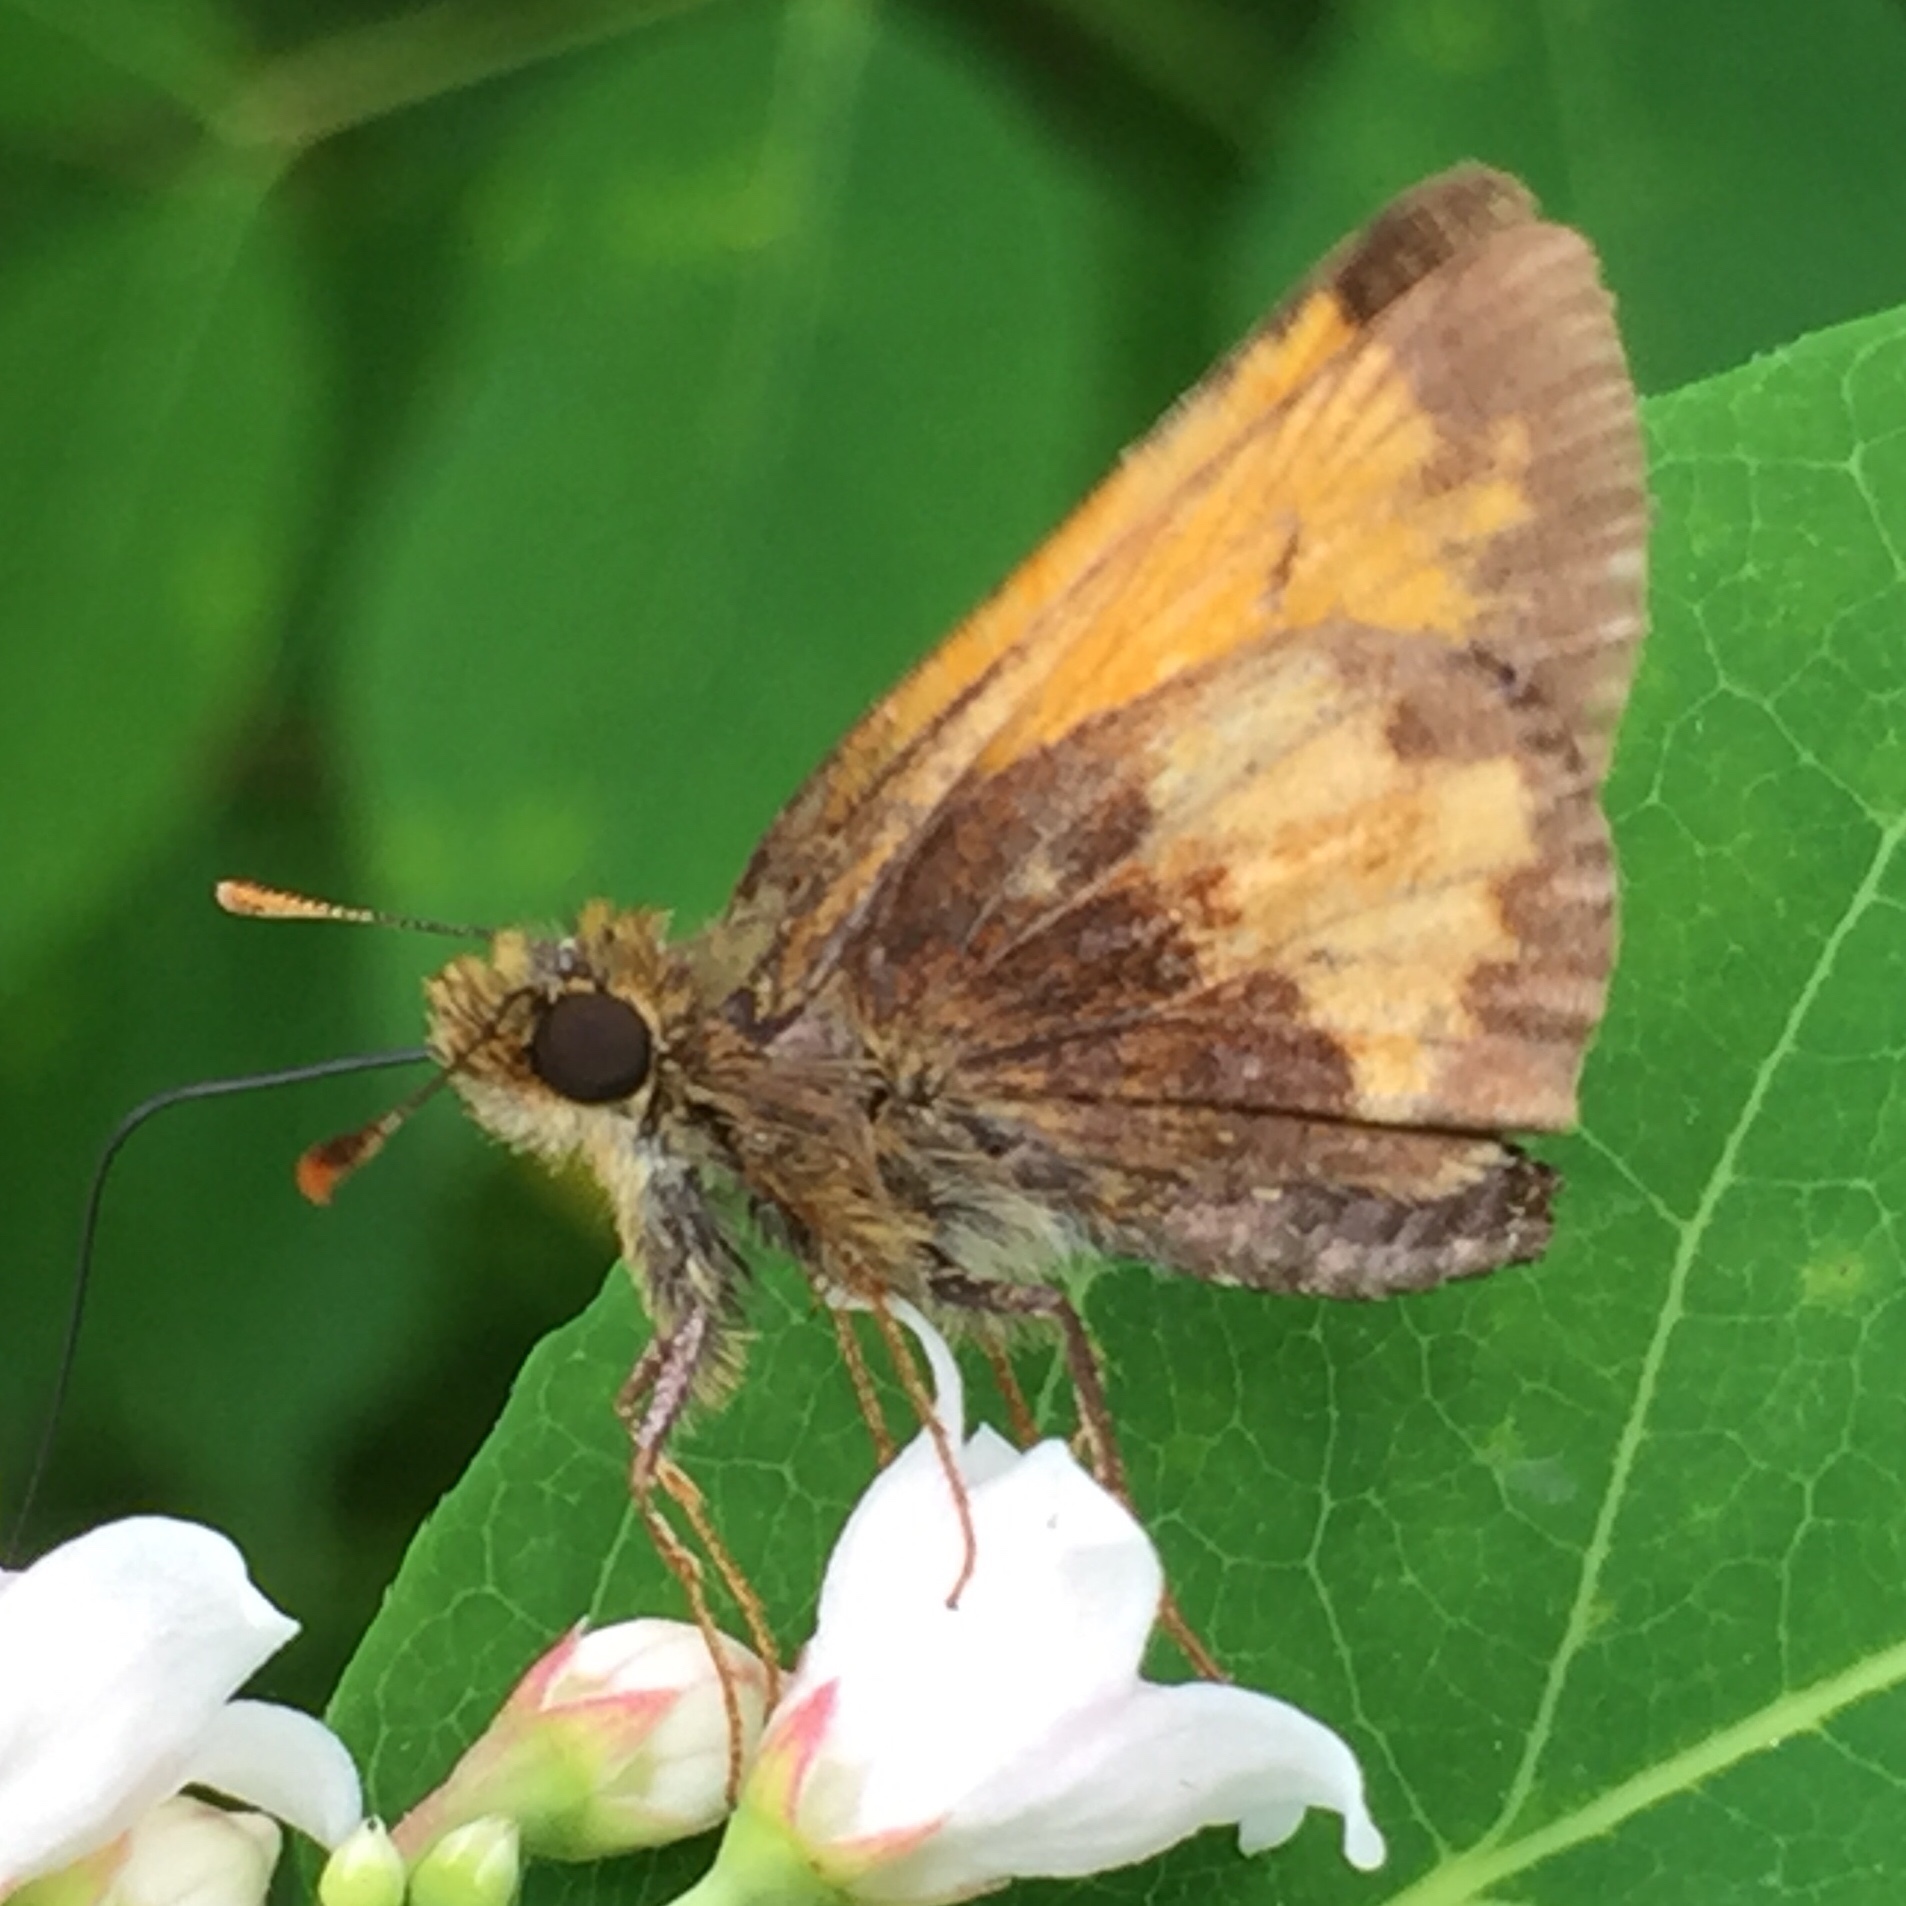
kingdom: Animalia
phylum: Arthropoda
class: Insecta
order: Lepidoptera
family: Hesperiidae
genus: Lon
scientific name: Lon hobomok
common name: Hobomok skipper
